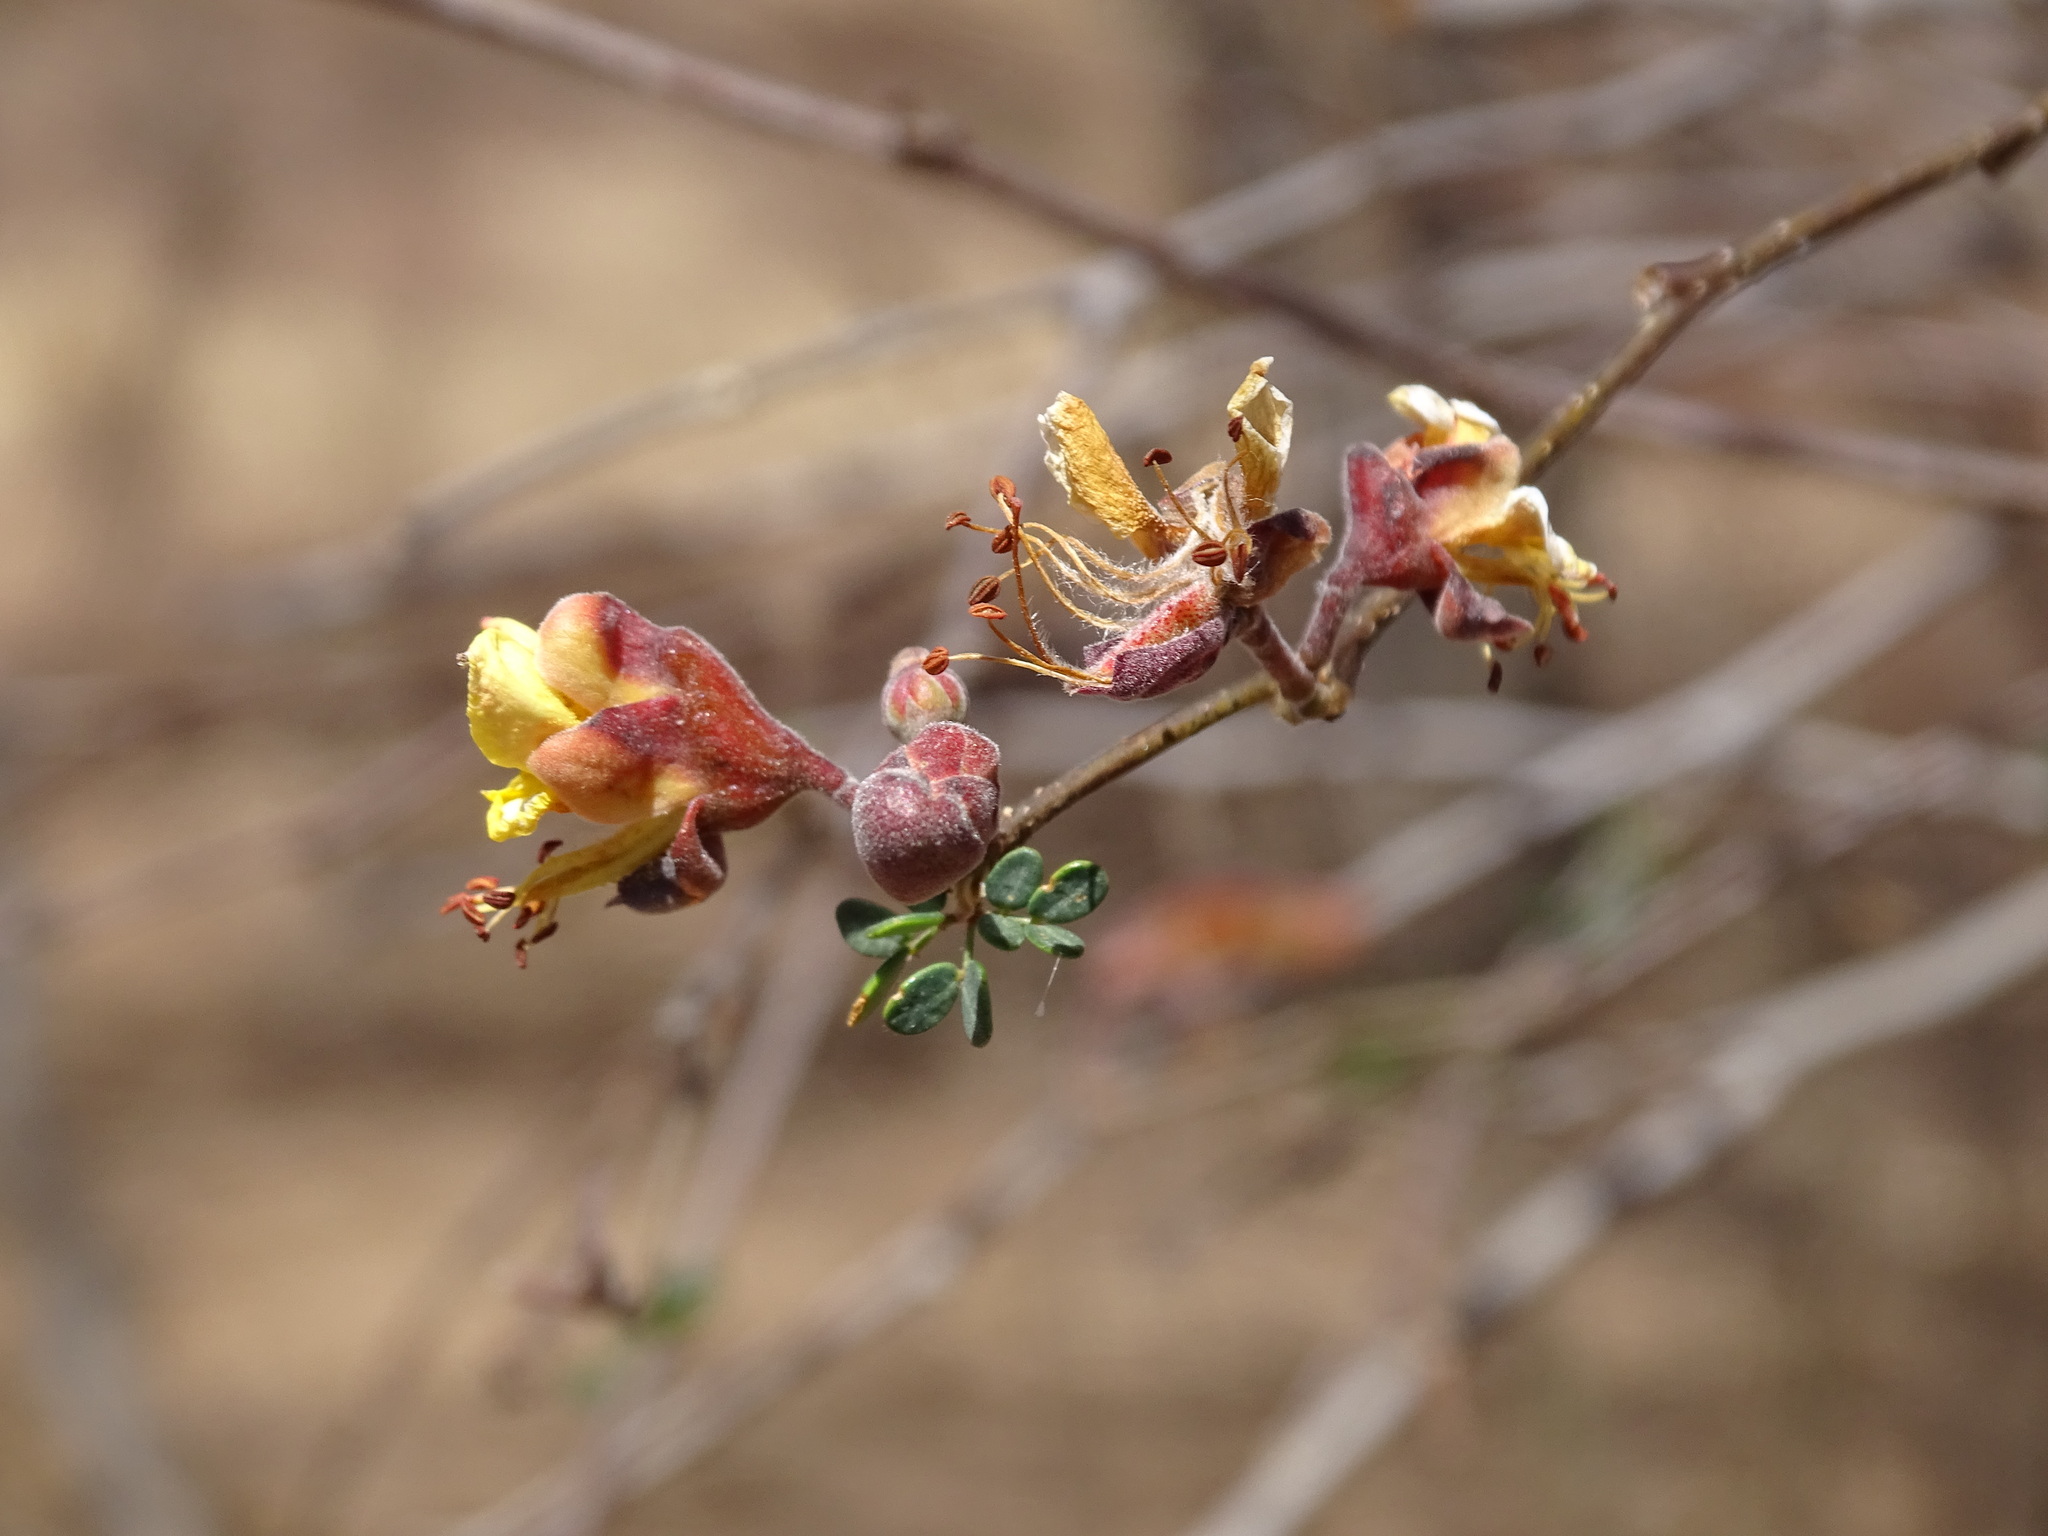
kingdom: Plantae
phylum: Tracheophyta
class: Magnoliopsida
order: Fabales
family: Fabaceae
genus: Erythrostemon
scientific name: Erythrostemon palmeri
